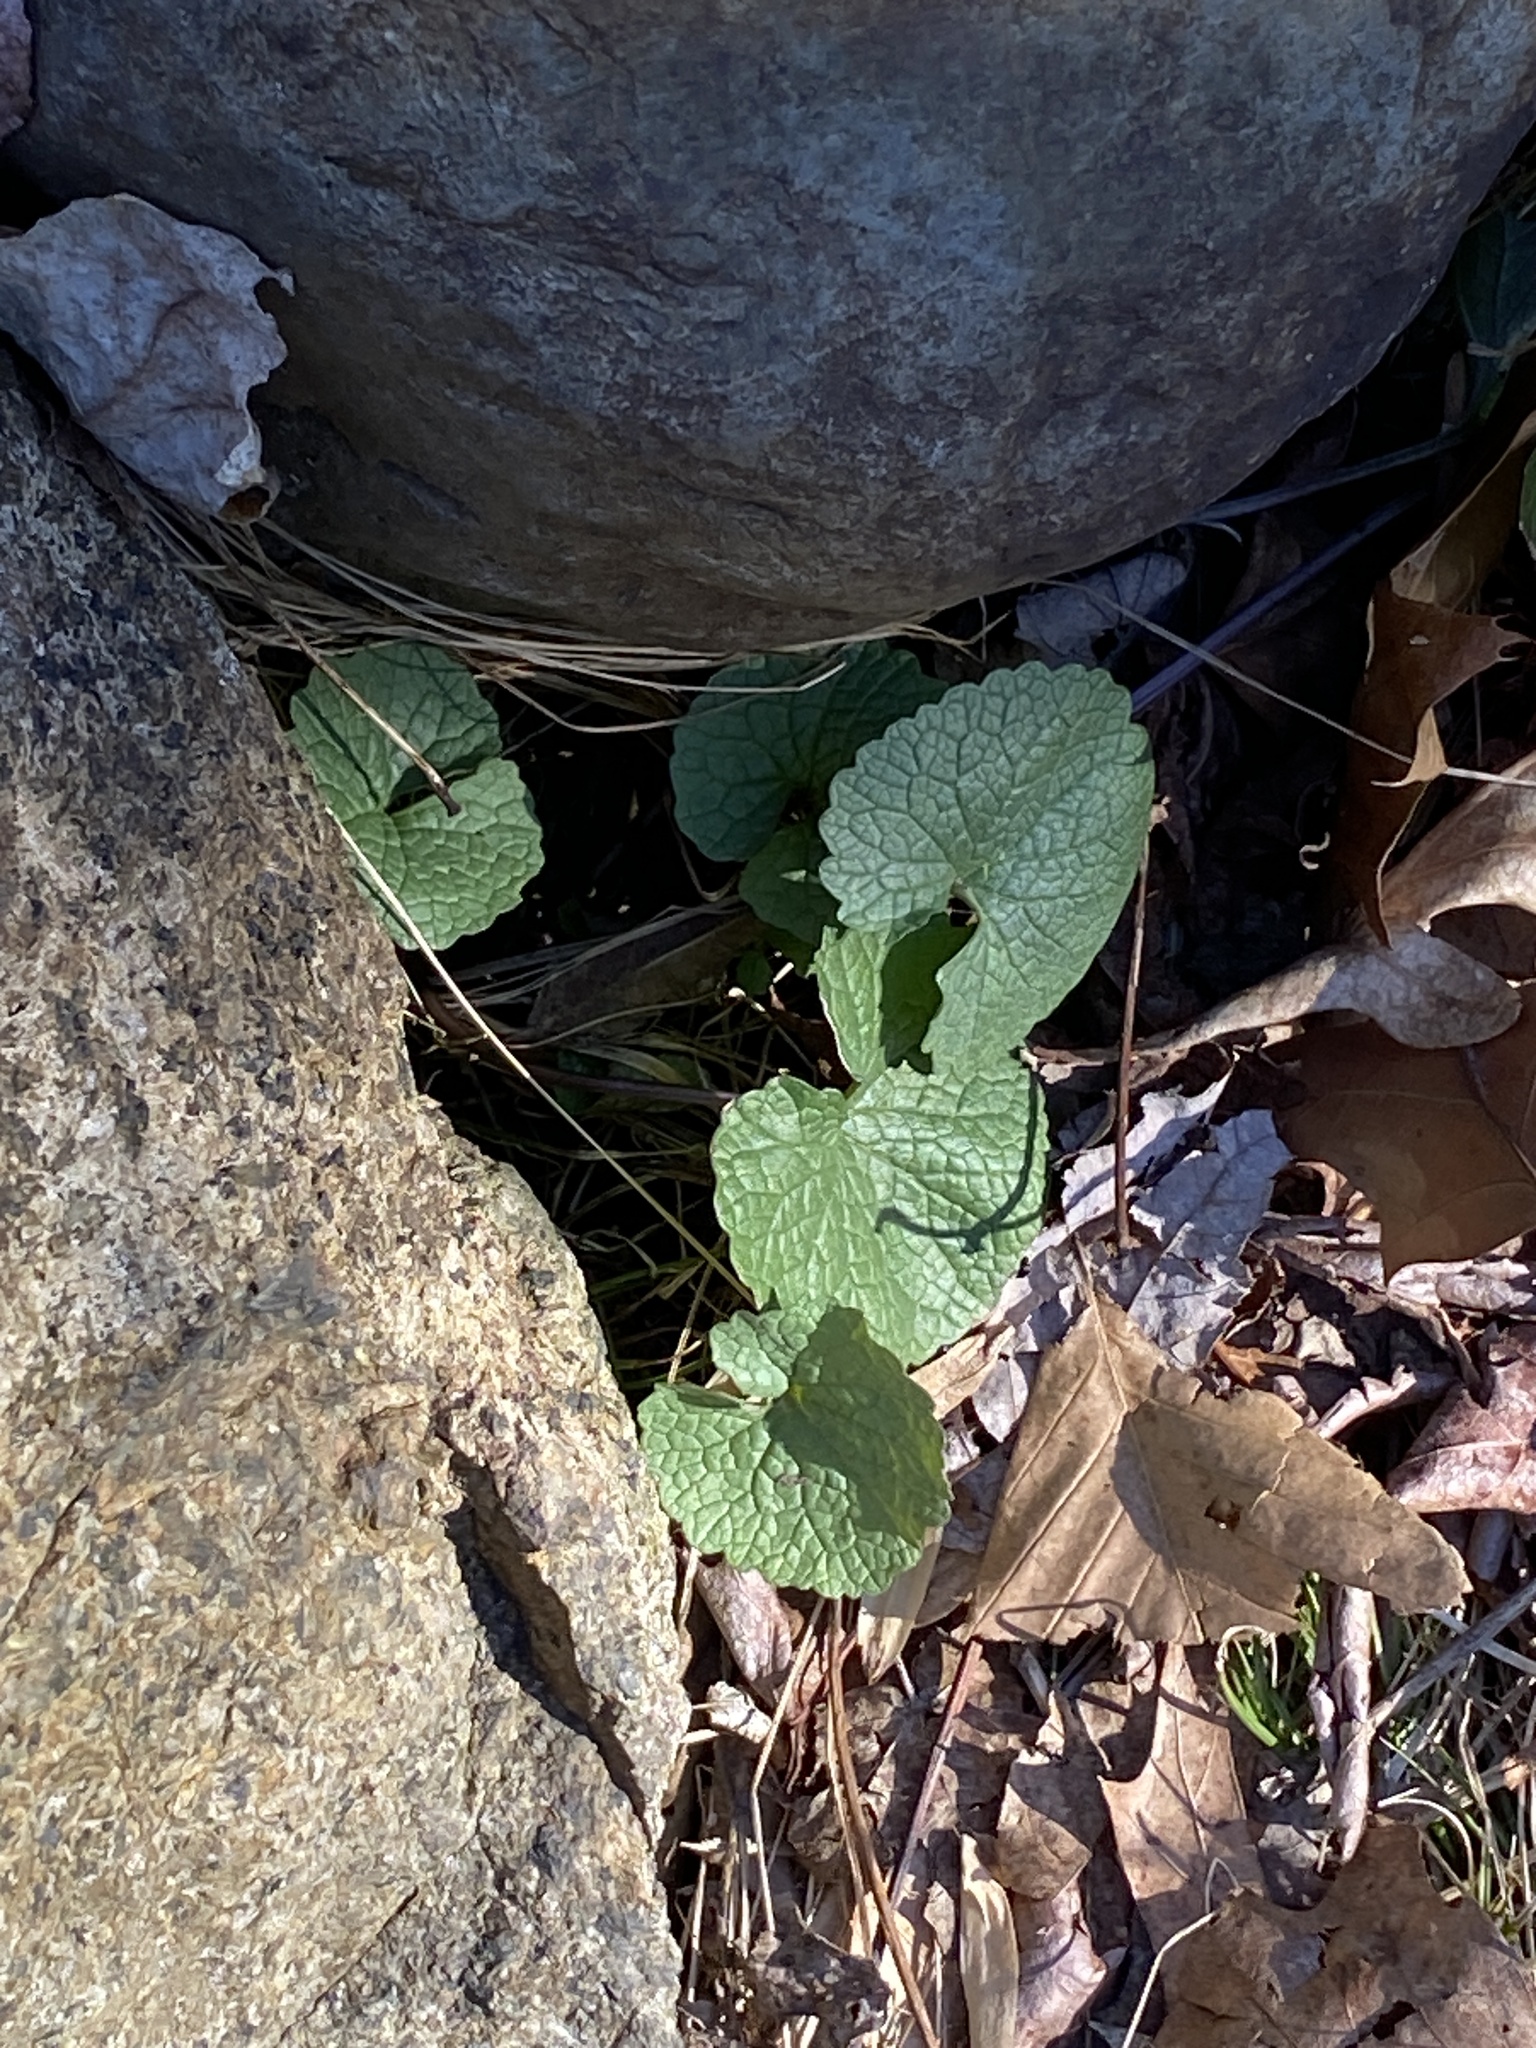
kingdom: Plantae
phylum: Tracheophyta
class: Magnoliopsida
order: Brassicales
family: Brassicaceae
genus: Alliaria
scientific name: Alliaria petiolata
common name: Garlic mustard
